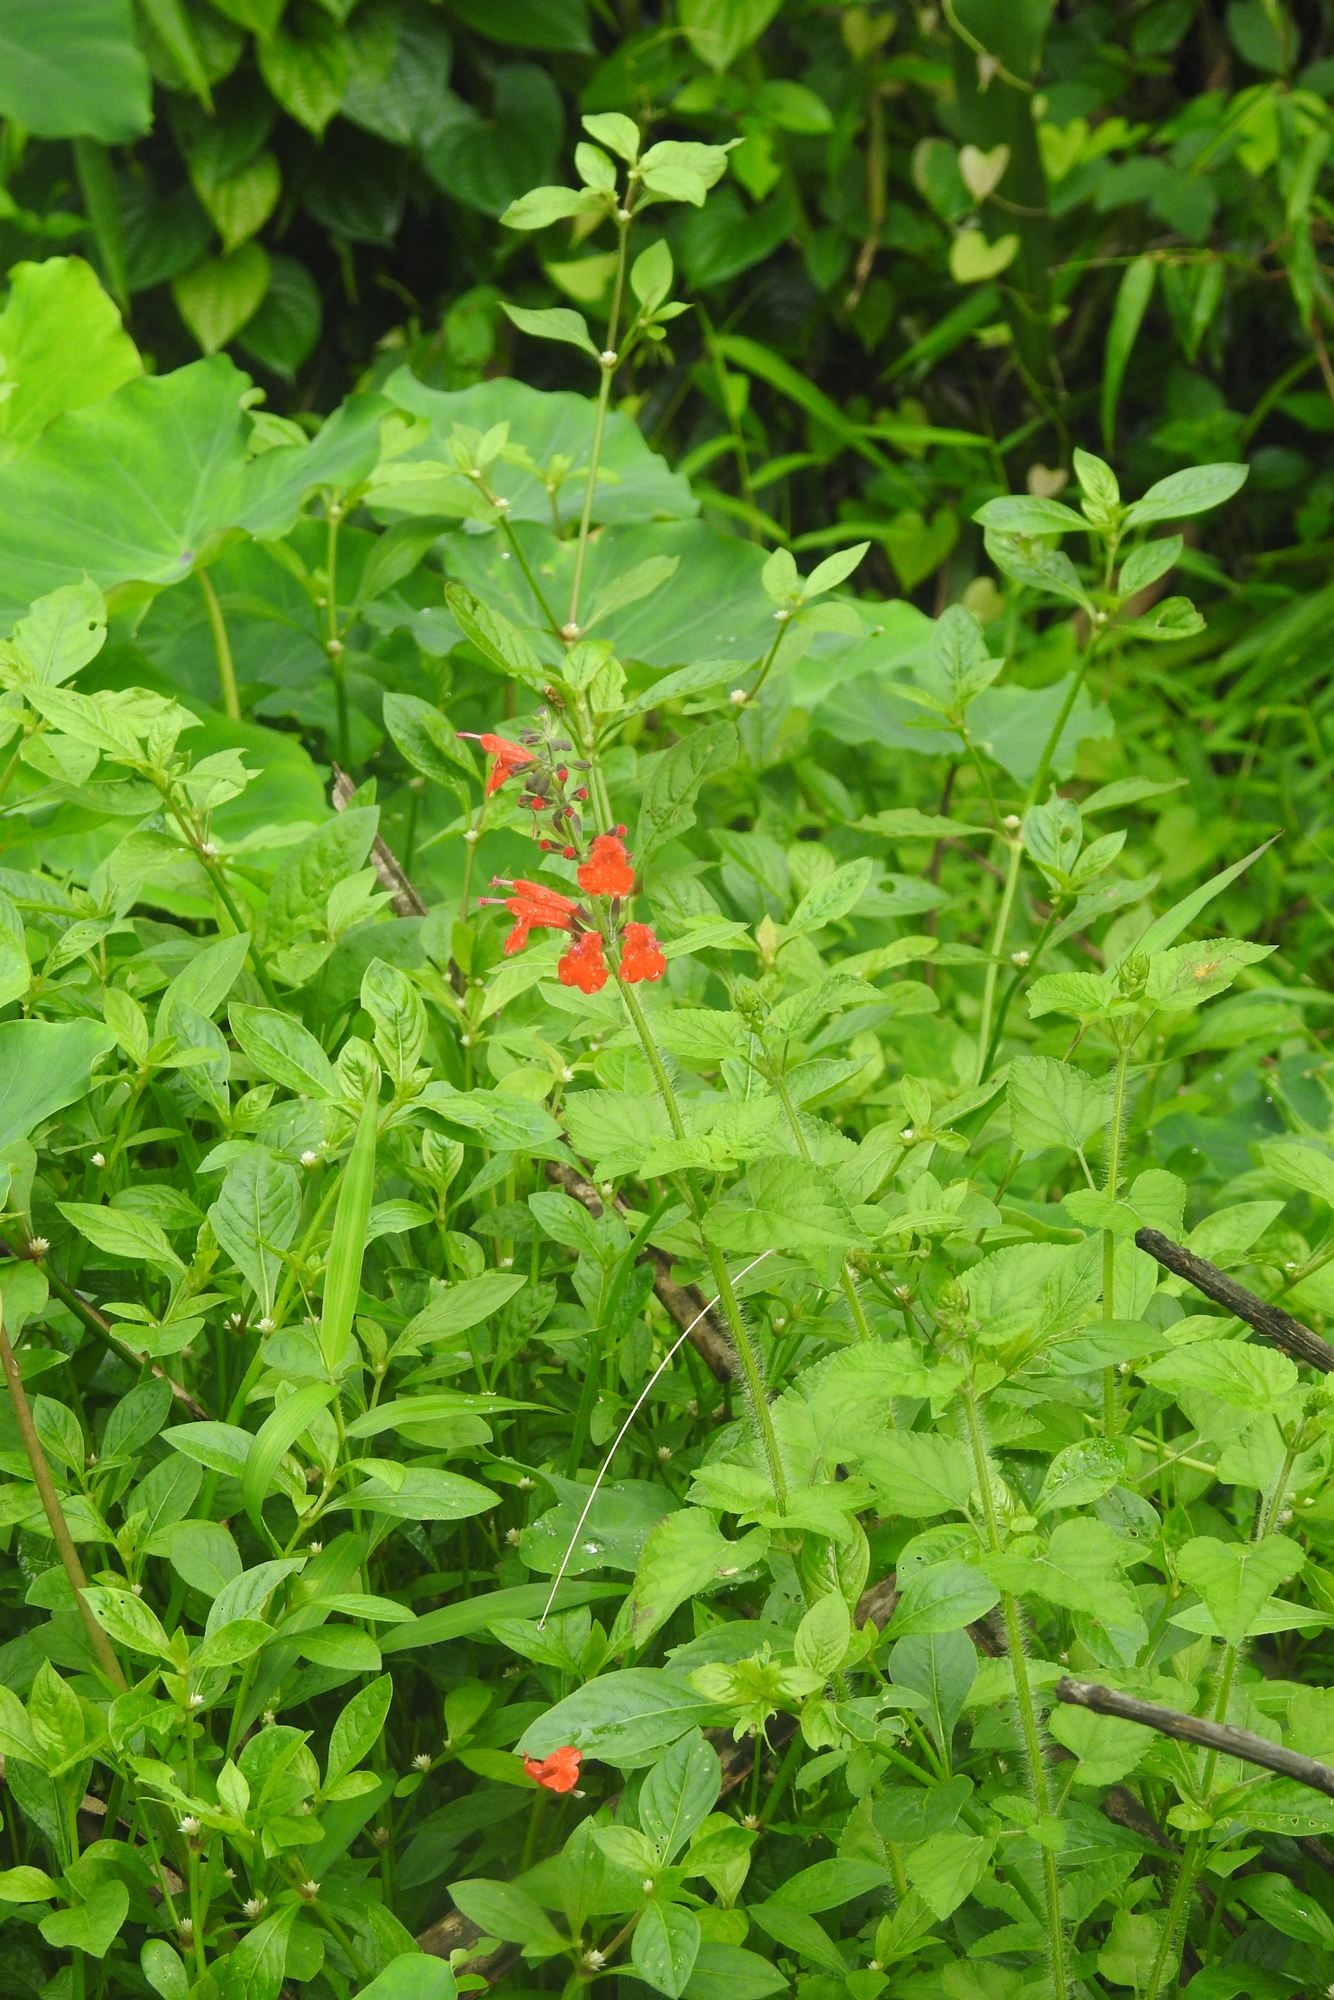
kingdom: Plantae
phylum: Tracheophyta
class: Magnoliopsida
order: Lamiales
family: Lamiaceae
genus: Salvia
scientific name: Salvia coccinea
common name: Blood sage
